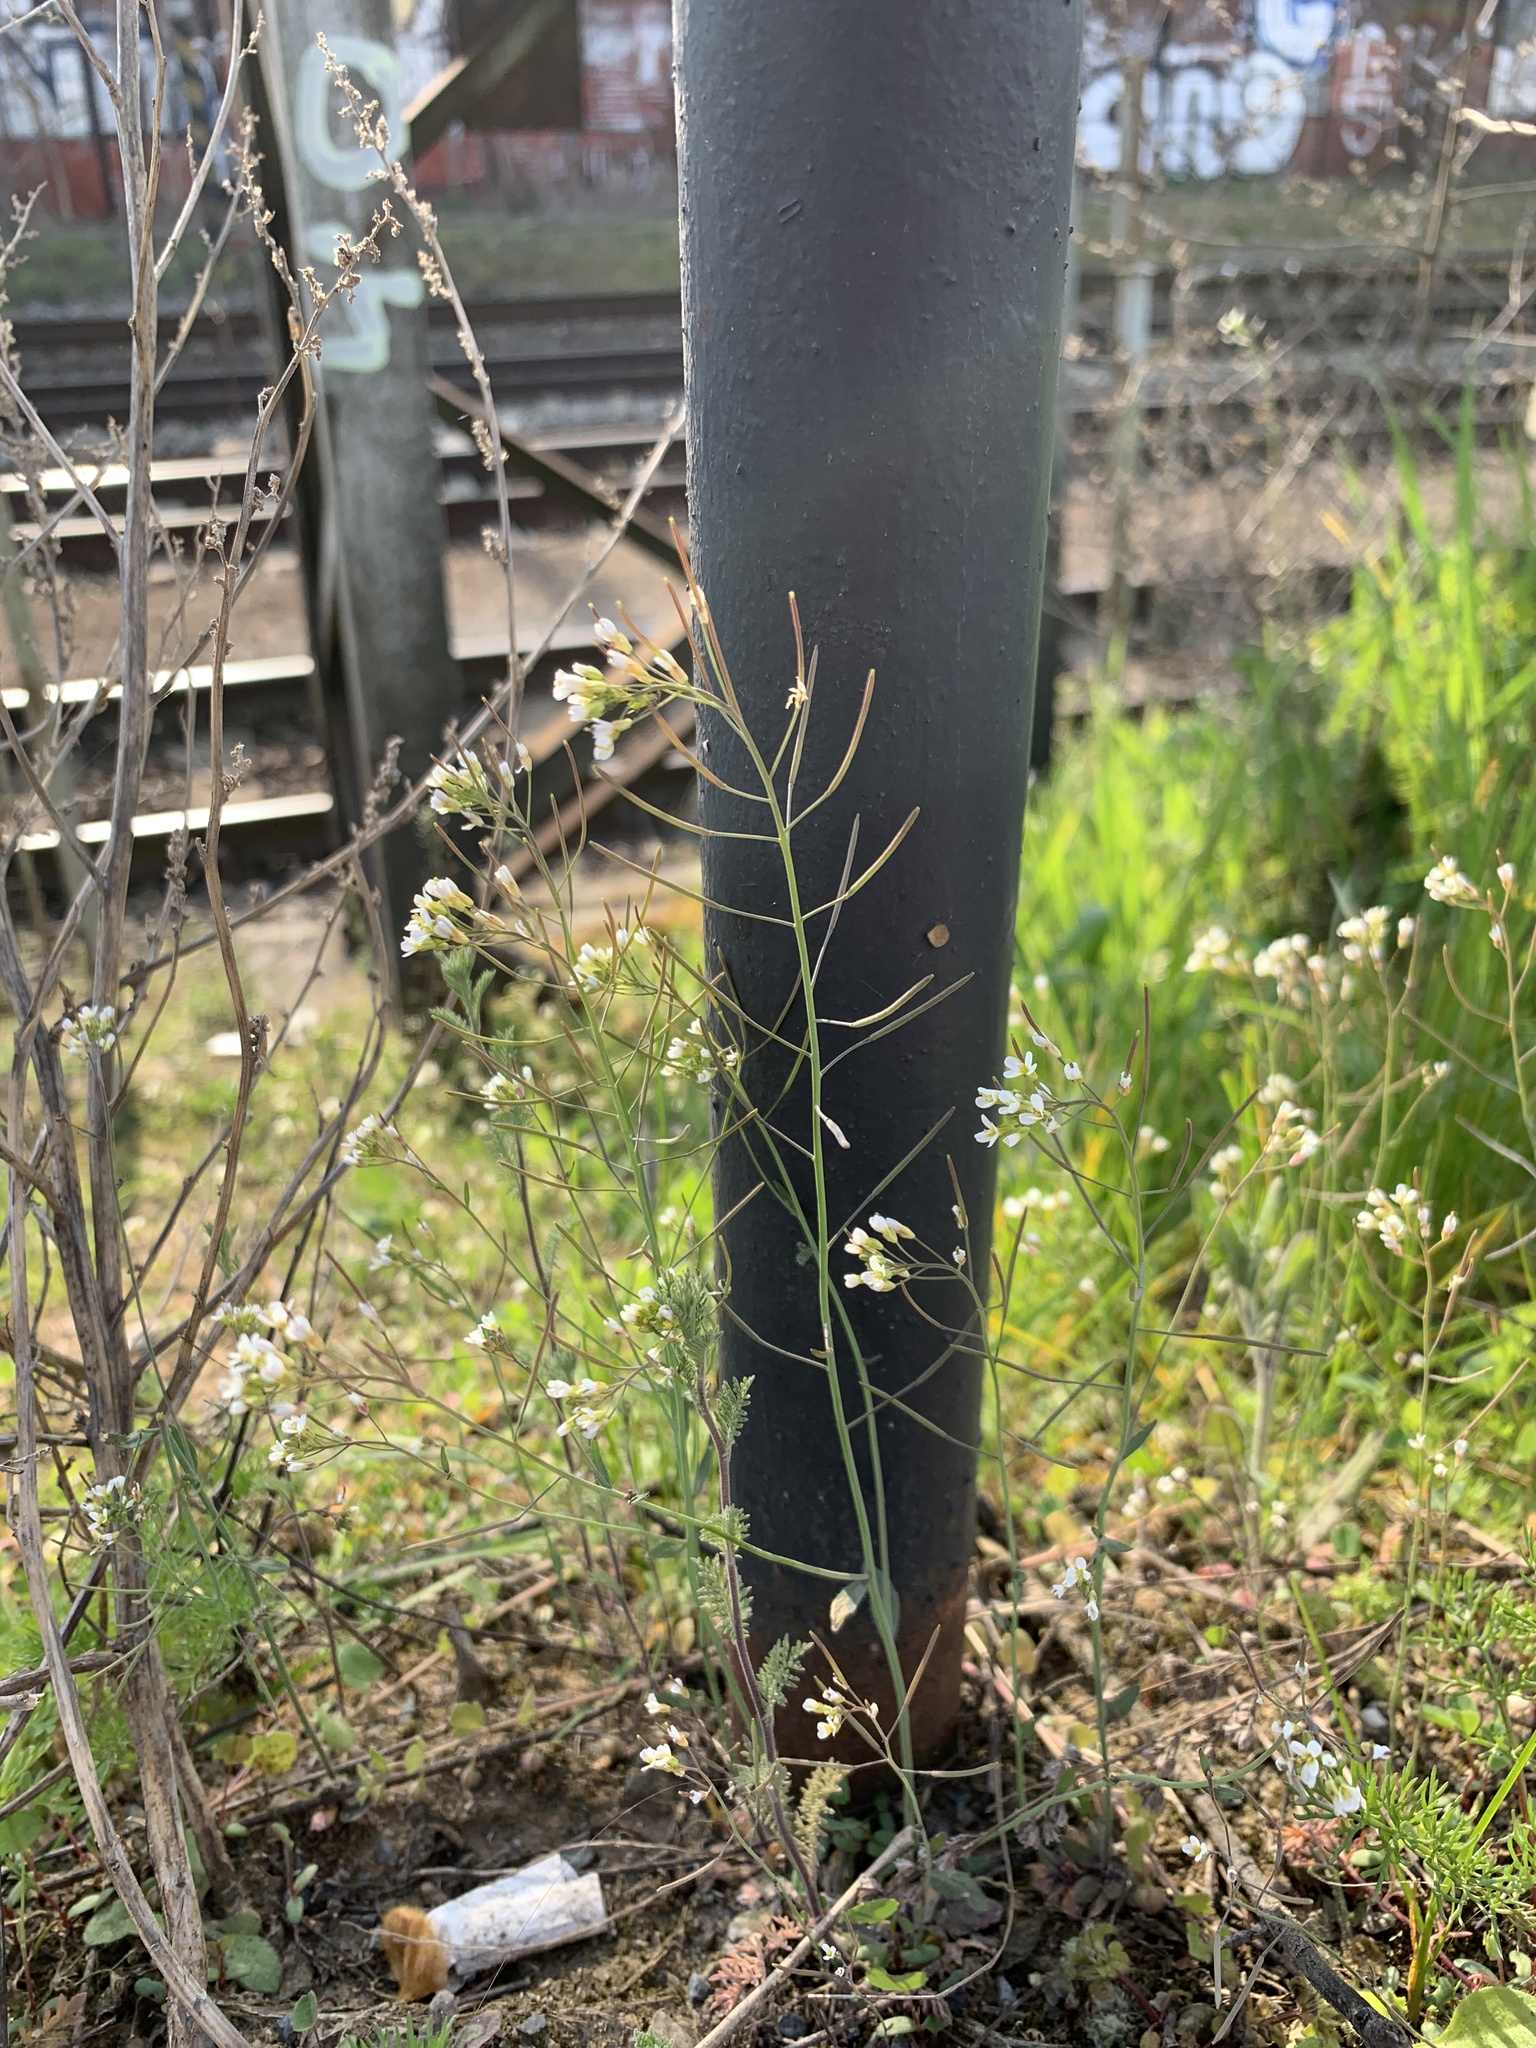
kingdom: Plantae
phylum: Tracheophyta
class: Magnoliopsida
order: Brassicales
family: Brassicaceae
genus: Arabidopsis
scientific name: Arabidopsis thaliana
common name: Thale cress
